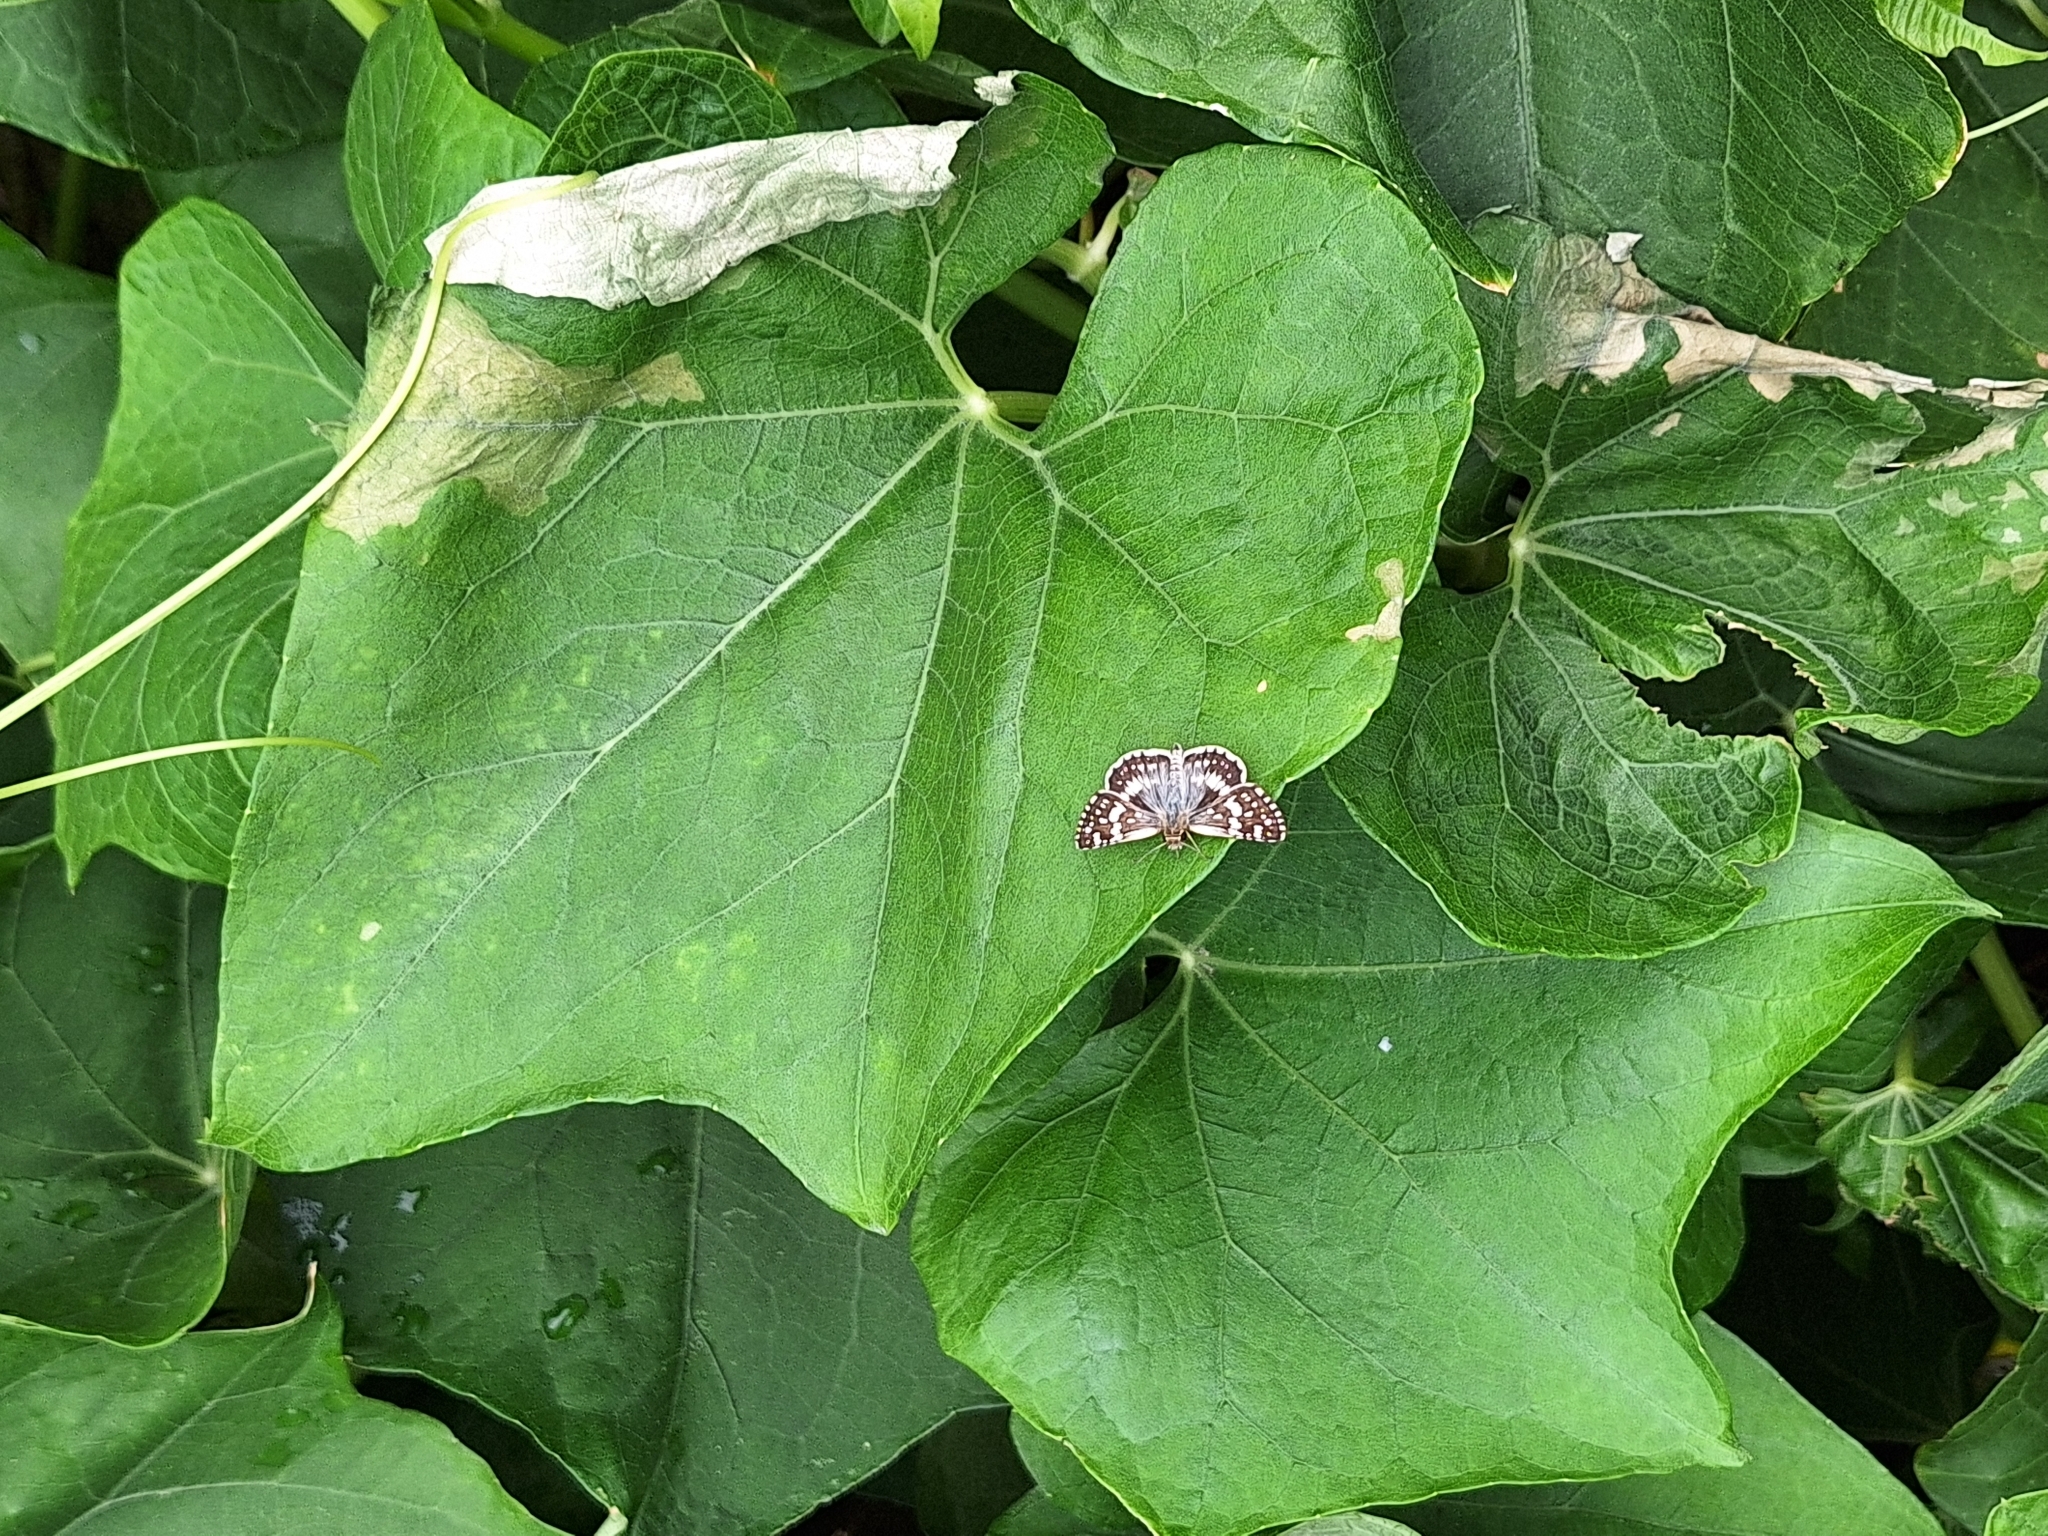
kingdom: Animalia
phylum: Arthropoda
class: Insecta
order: Lepidoptera
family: Hesperiidae
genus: Burnsius
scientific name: Burnsius orcynoides
